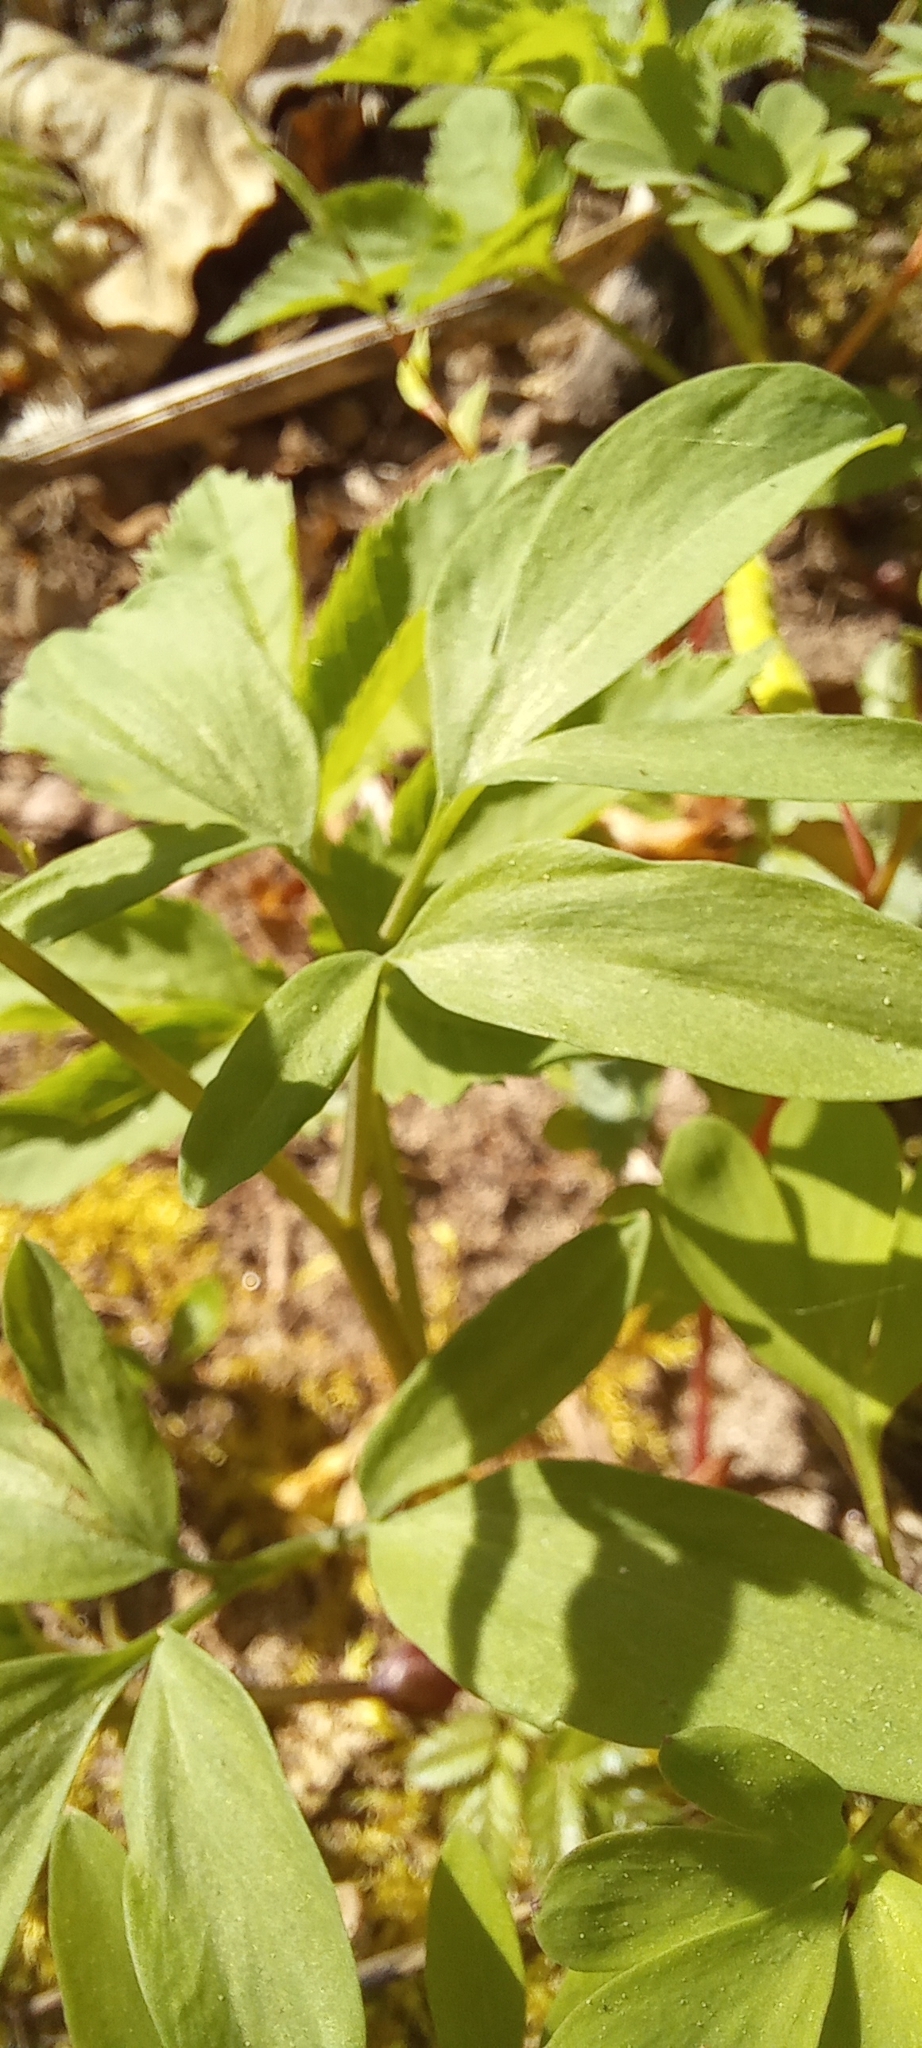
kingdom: Plantae
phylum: Tracheophyta
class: Magnoliopsida
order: Ranunculales
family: Papaveraceae
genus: Corydalis
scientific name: Corydalis cava
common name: Hollowroot
